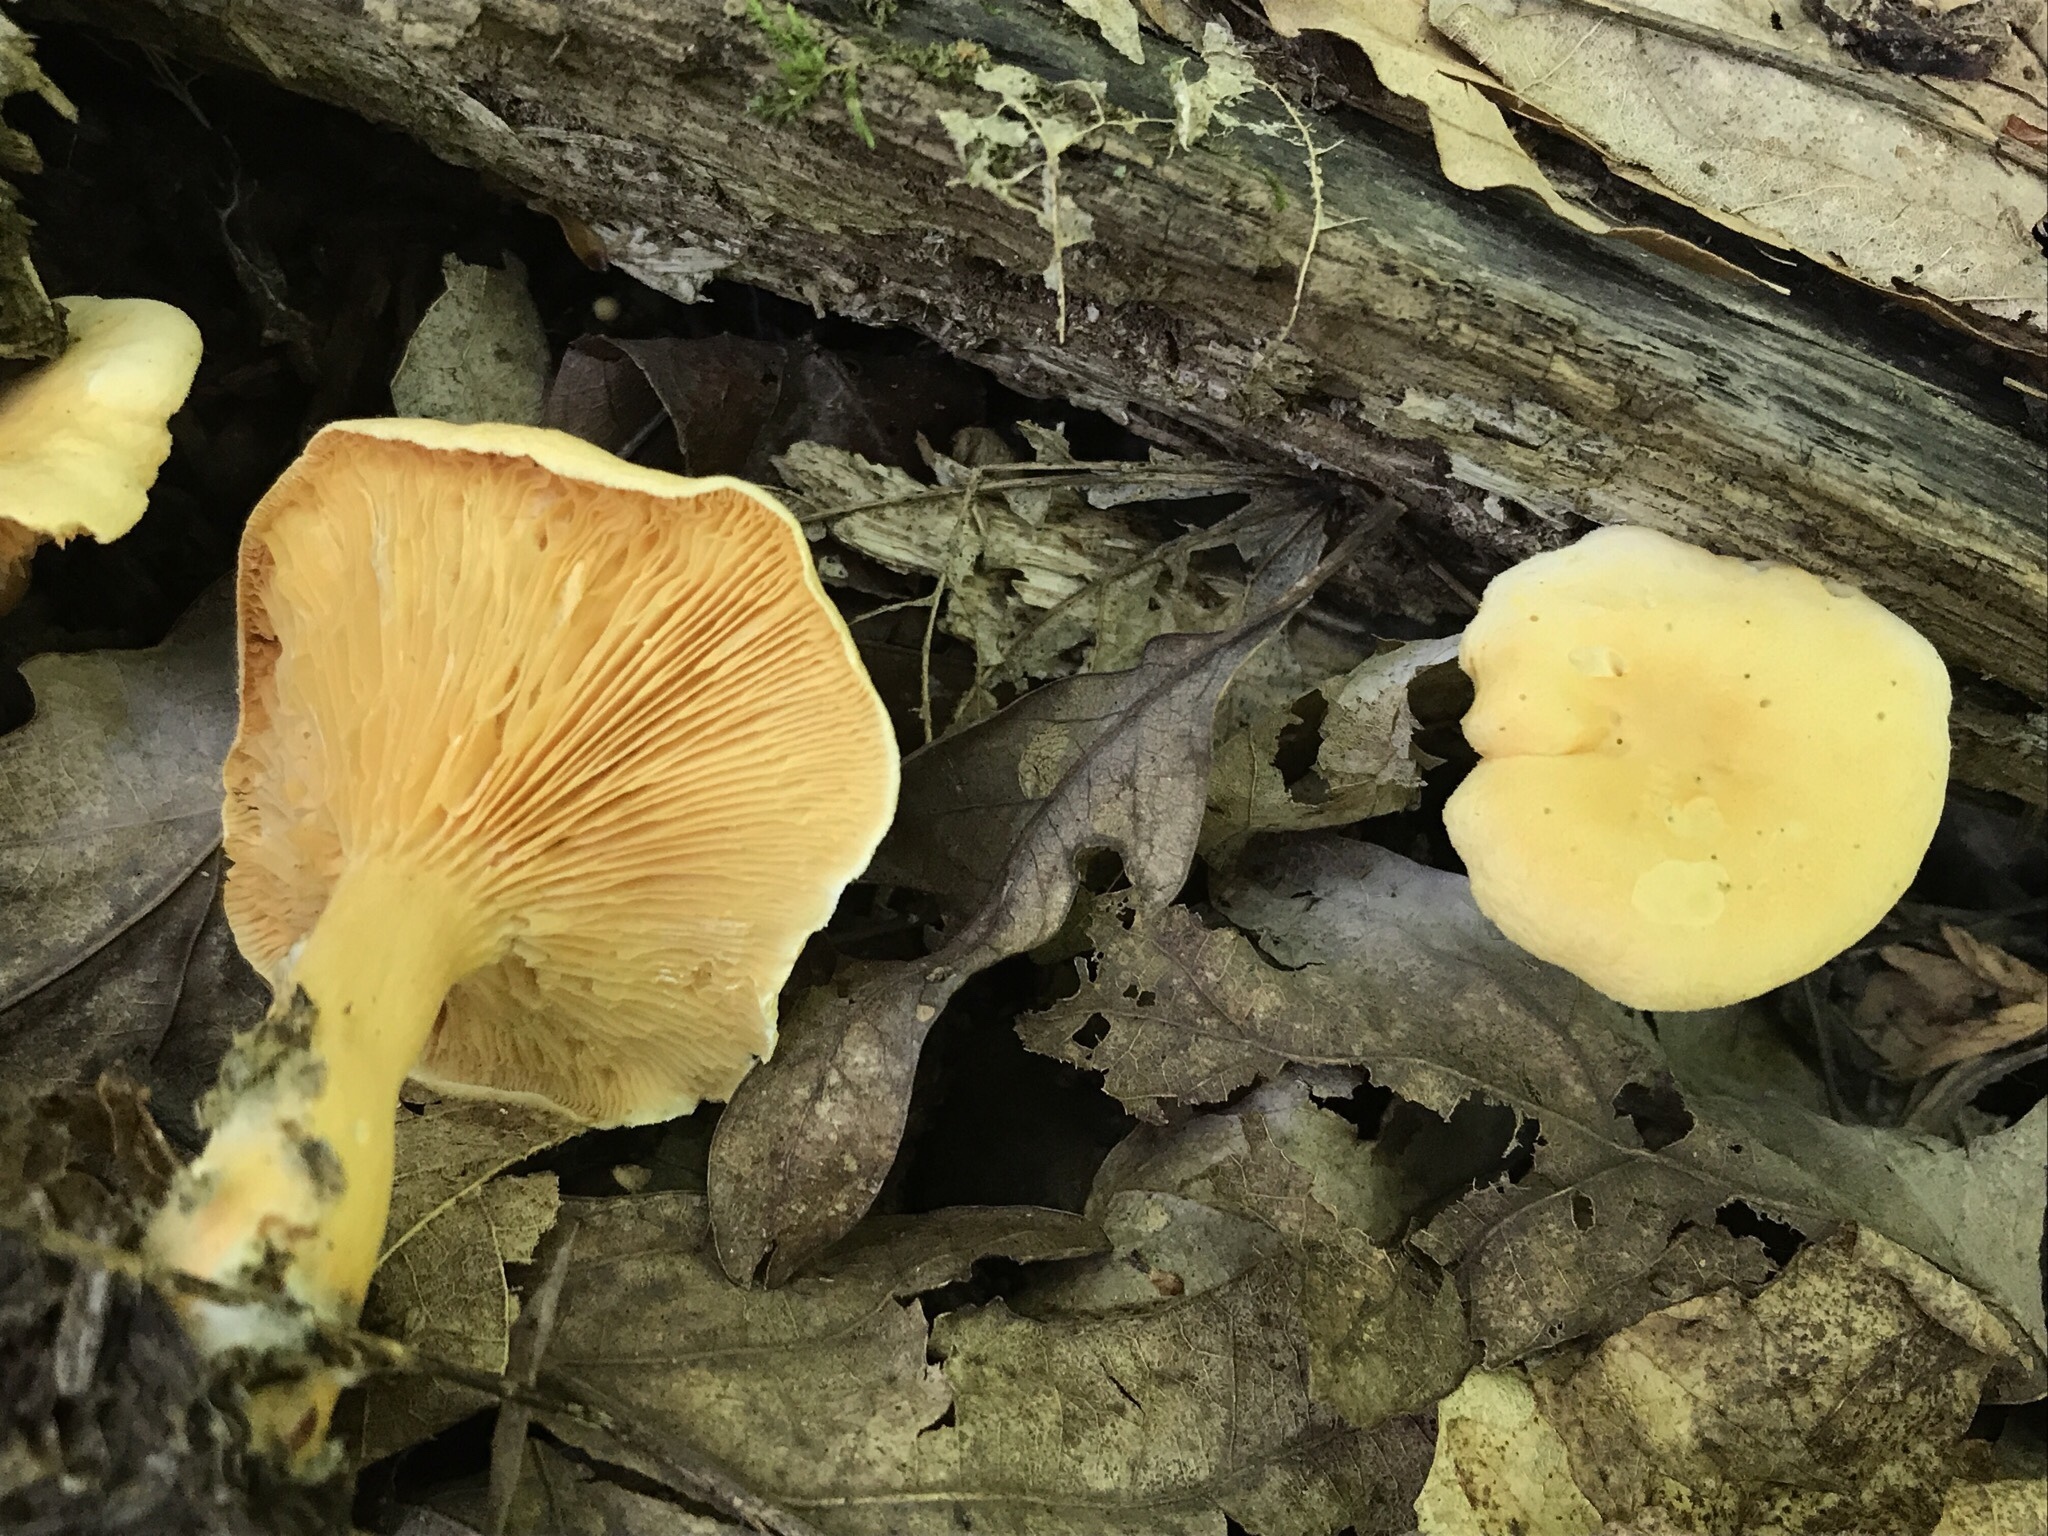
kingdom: Fungi
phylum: Basidiomycota
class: Agaricomycetes
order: Boletales
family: Hygrophoropsidaceae
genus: Hygrophoropsis
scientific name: Hygrophoropsis aurantiaca
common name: False chanterelle
